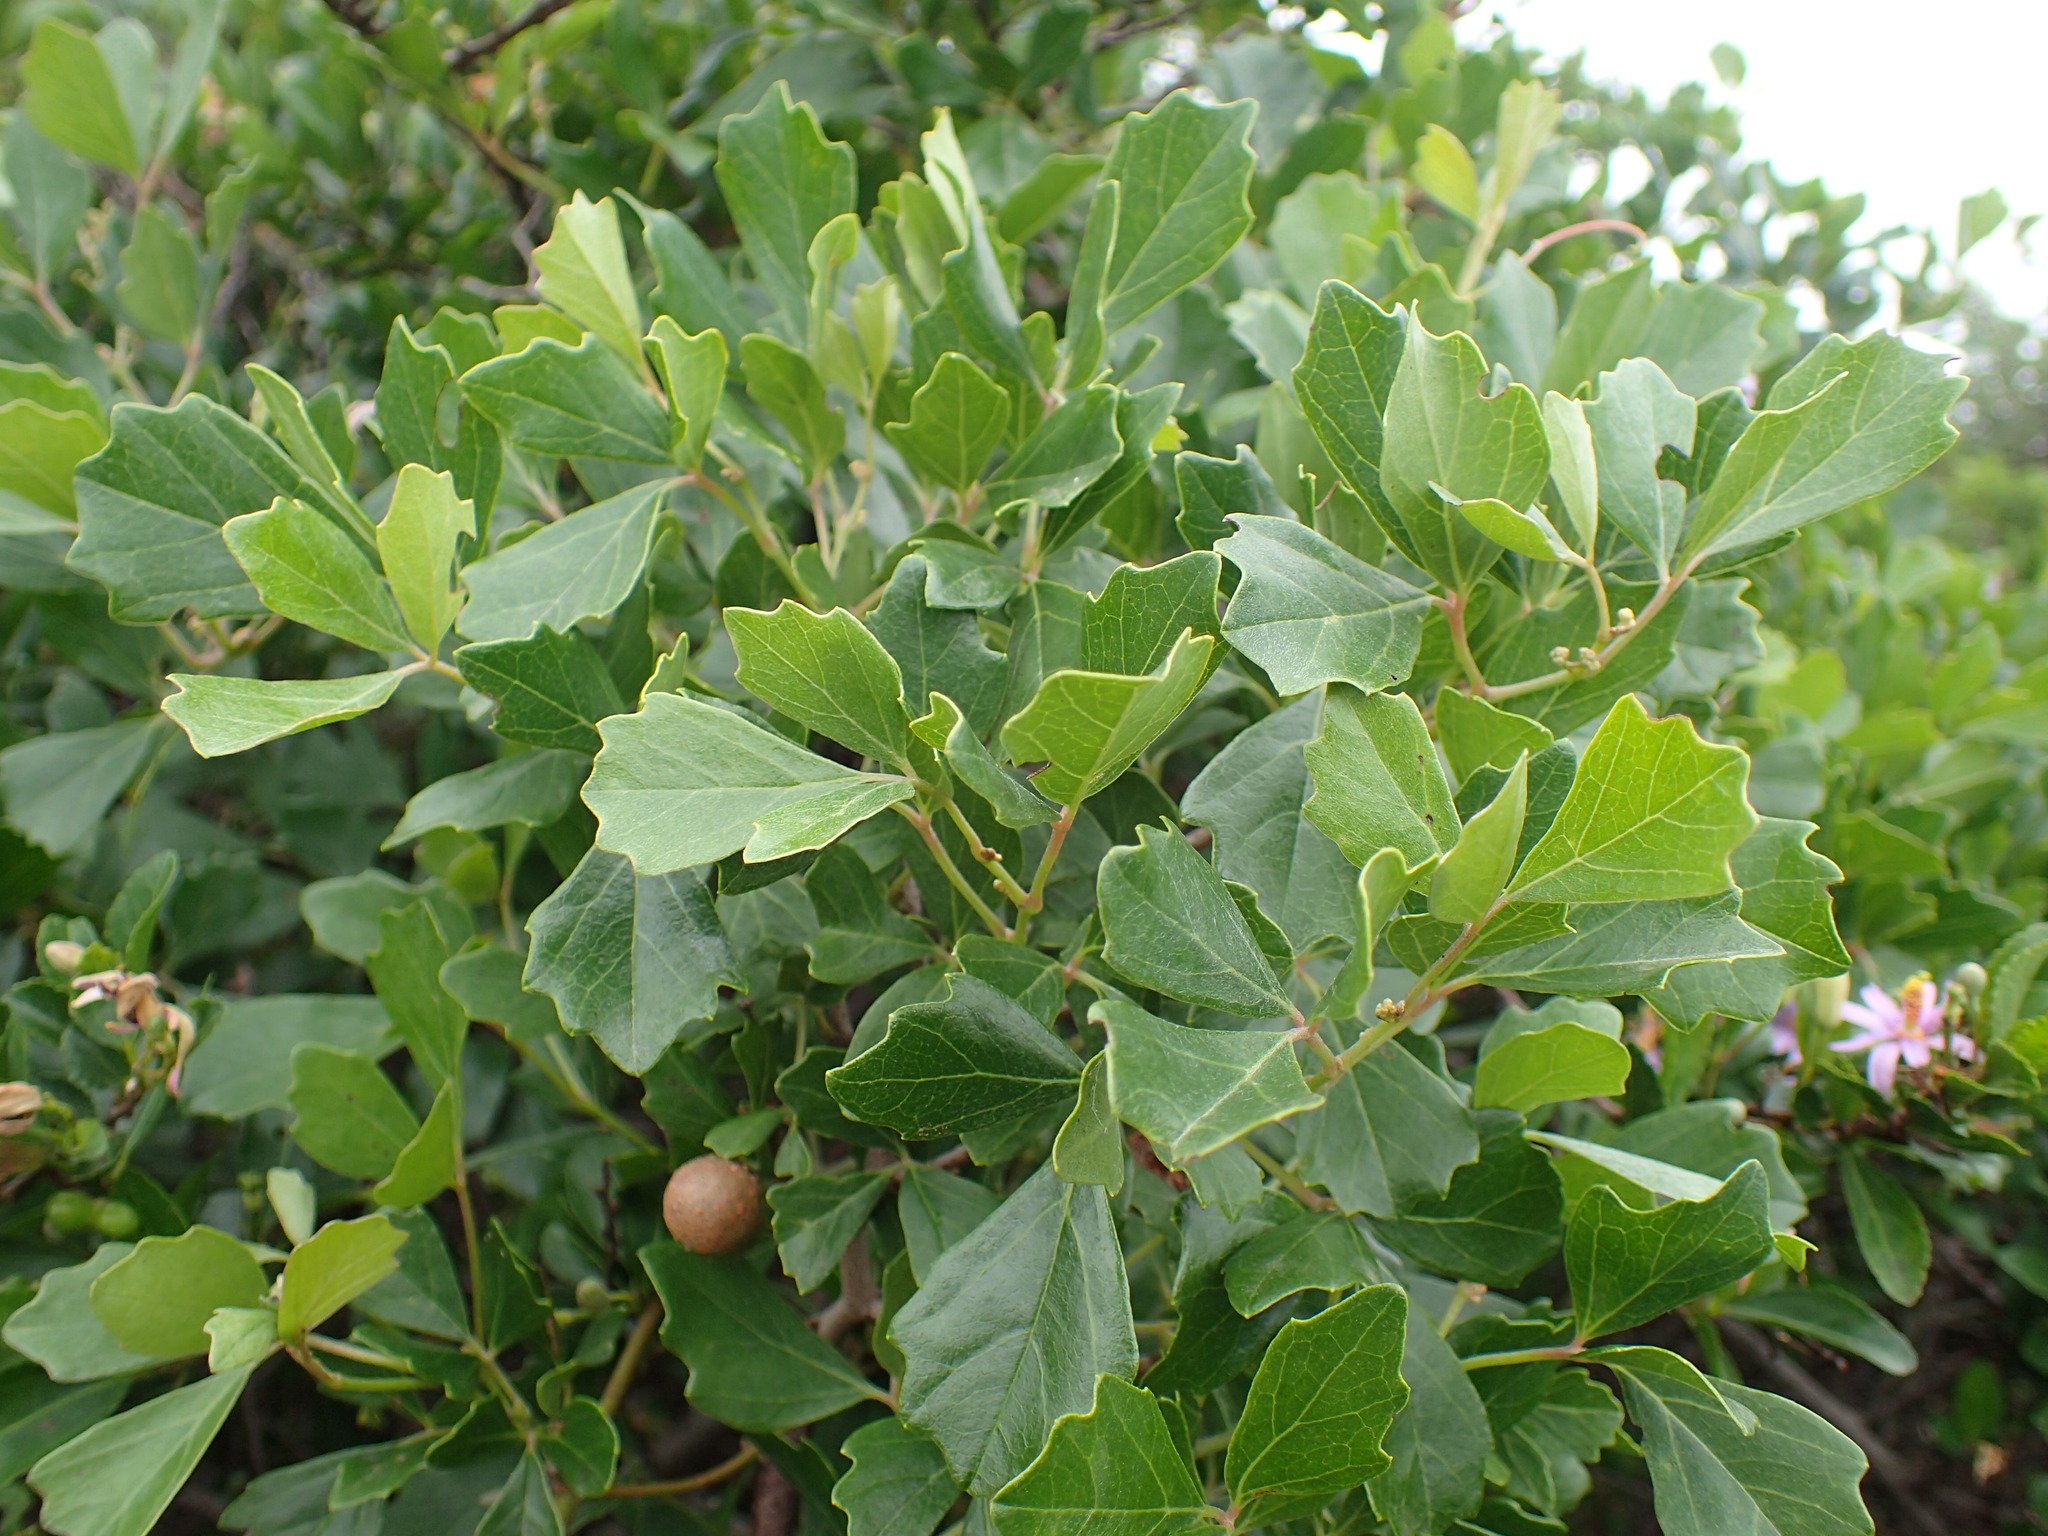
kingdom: Plantae
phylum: Tracheophyta
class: Magnoliopsida
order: Vitales
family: Vitaceae
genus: Rhoicissus
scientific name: Rhoicissus tridentata
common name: Common forest grape
